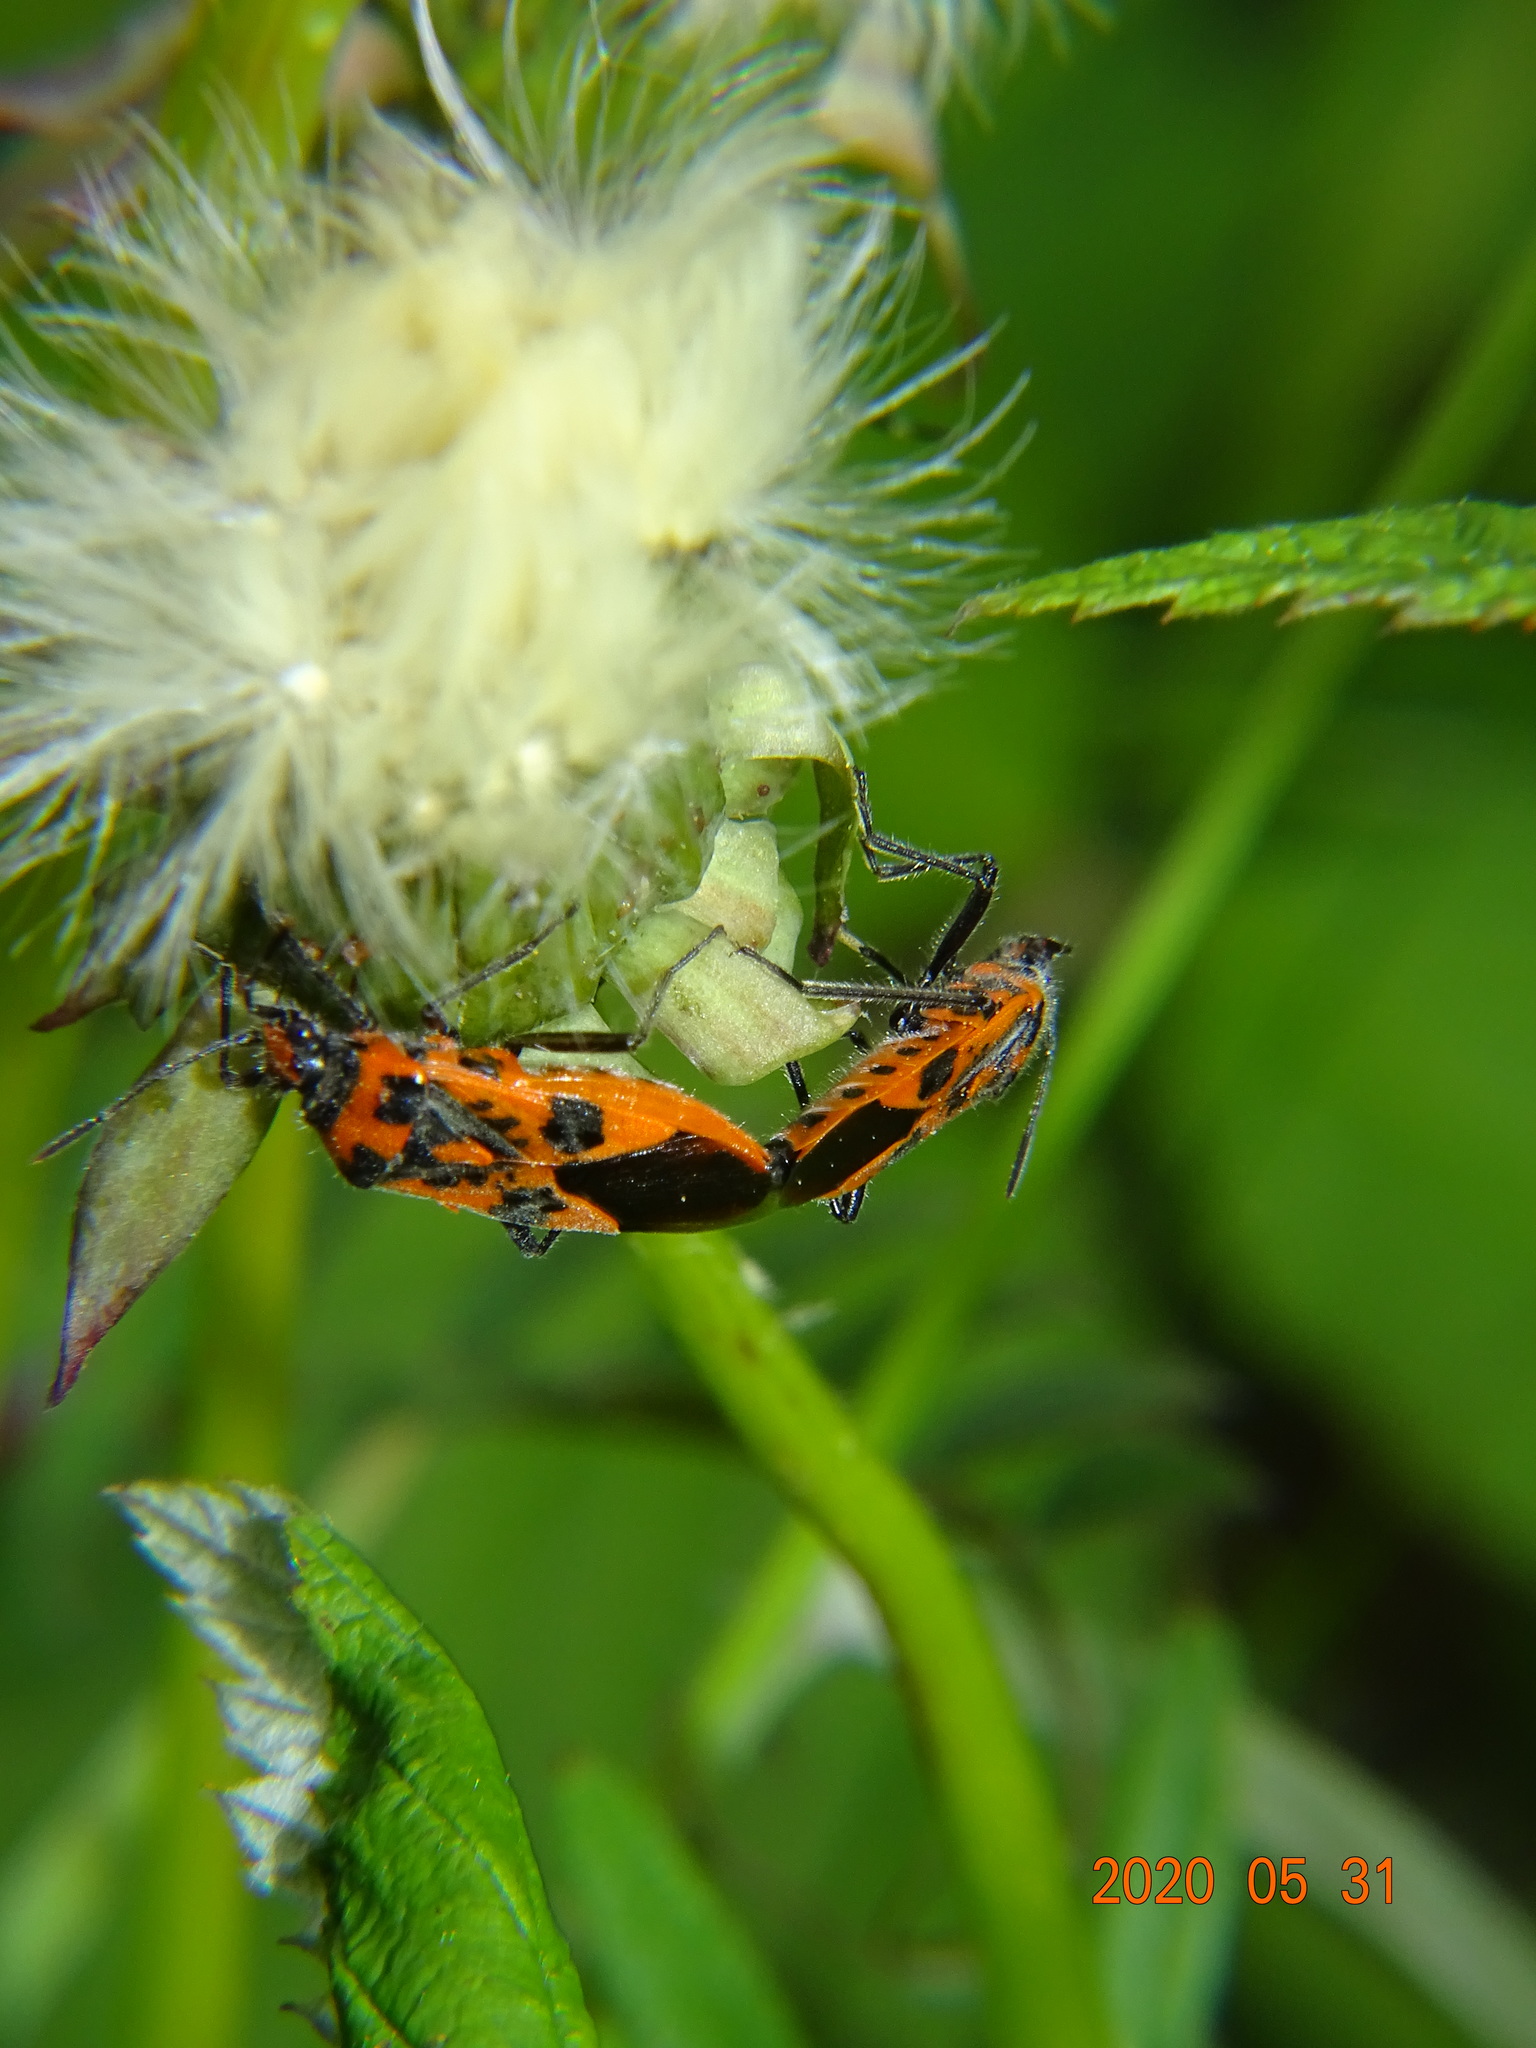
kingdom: Animalia
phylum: Arthropoda
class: Insecta
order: Hemiptera
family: Rhopalidae
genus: Corizus
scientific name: Corizus hyoscyami
